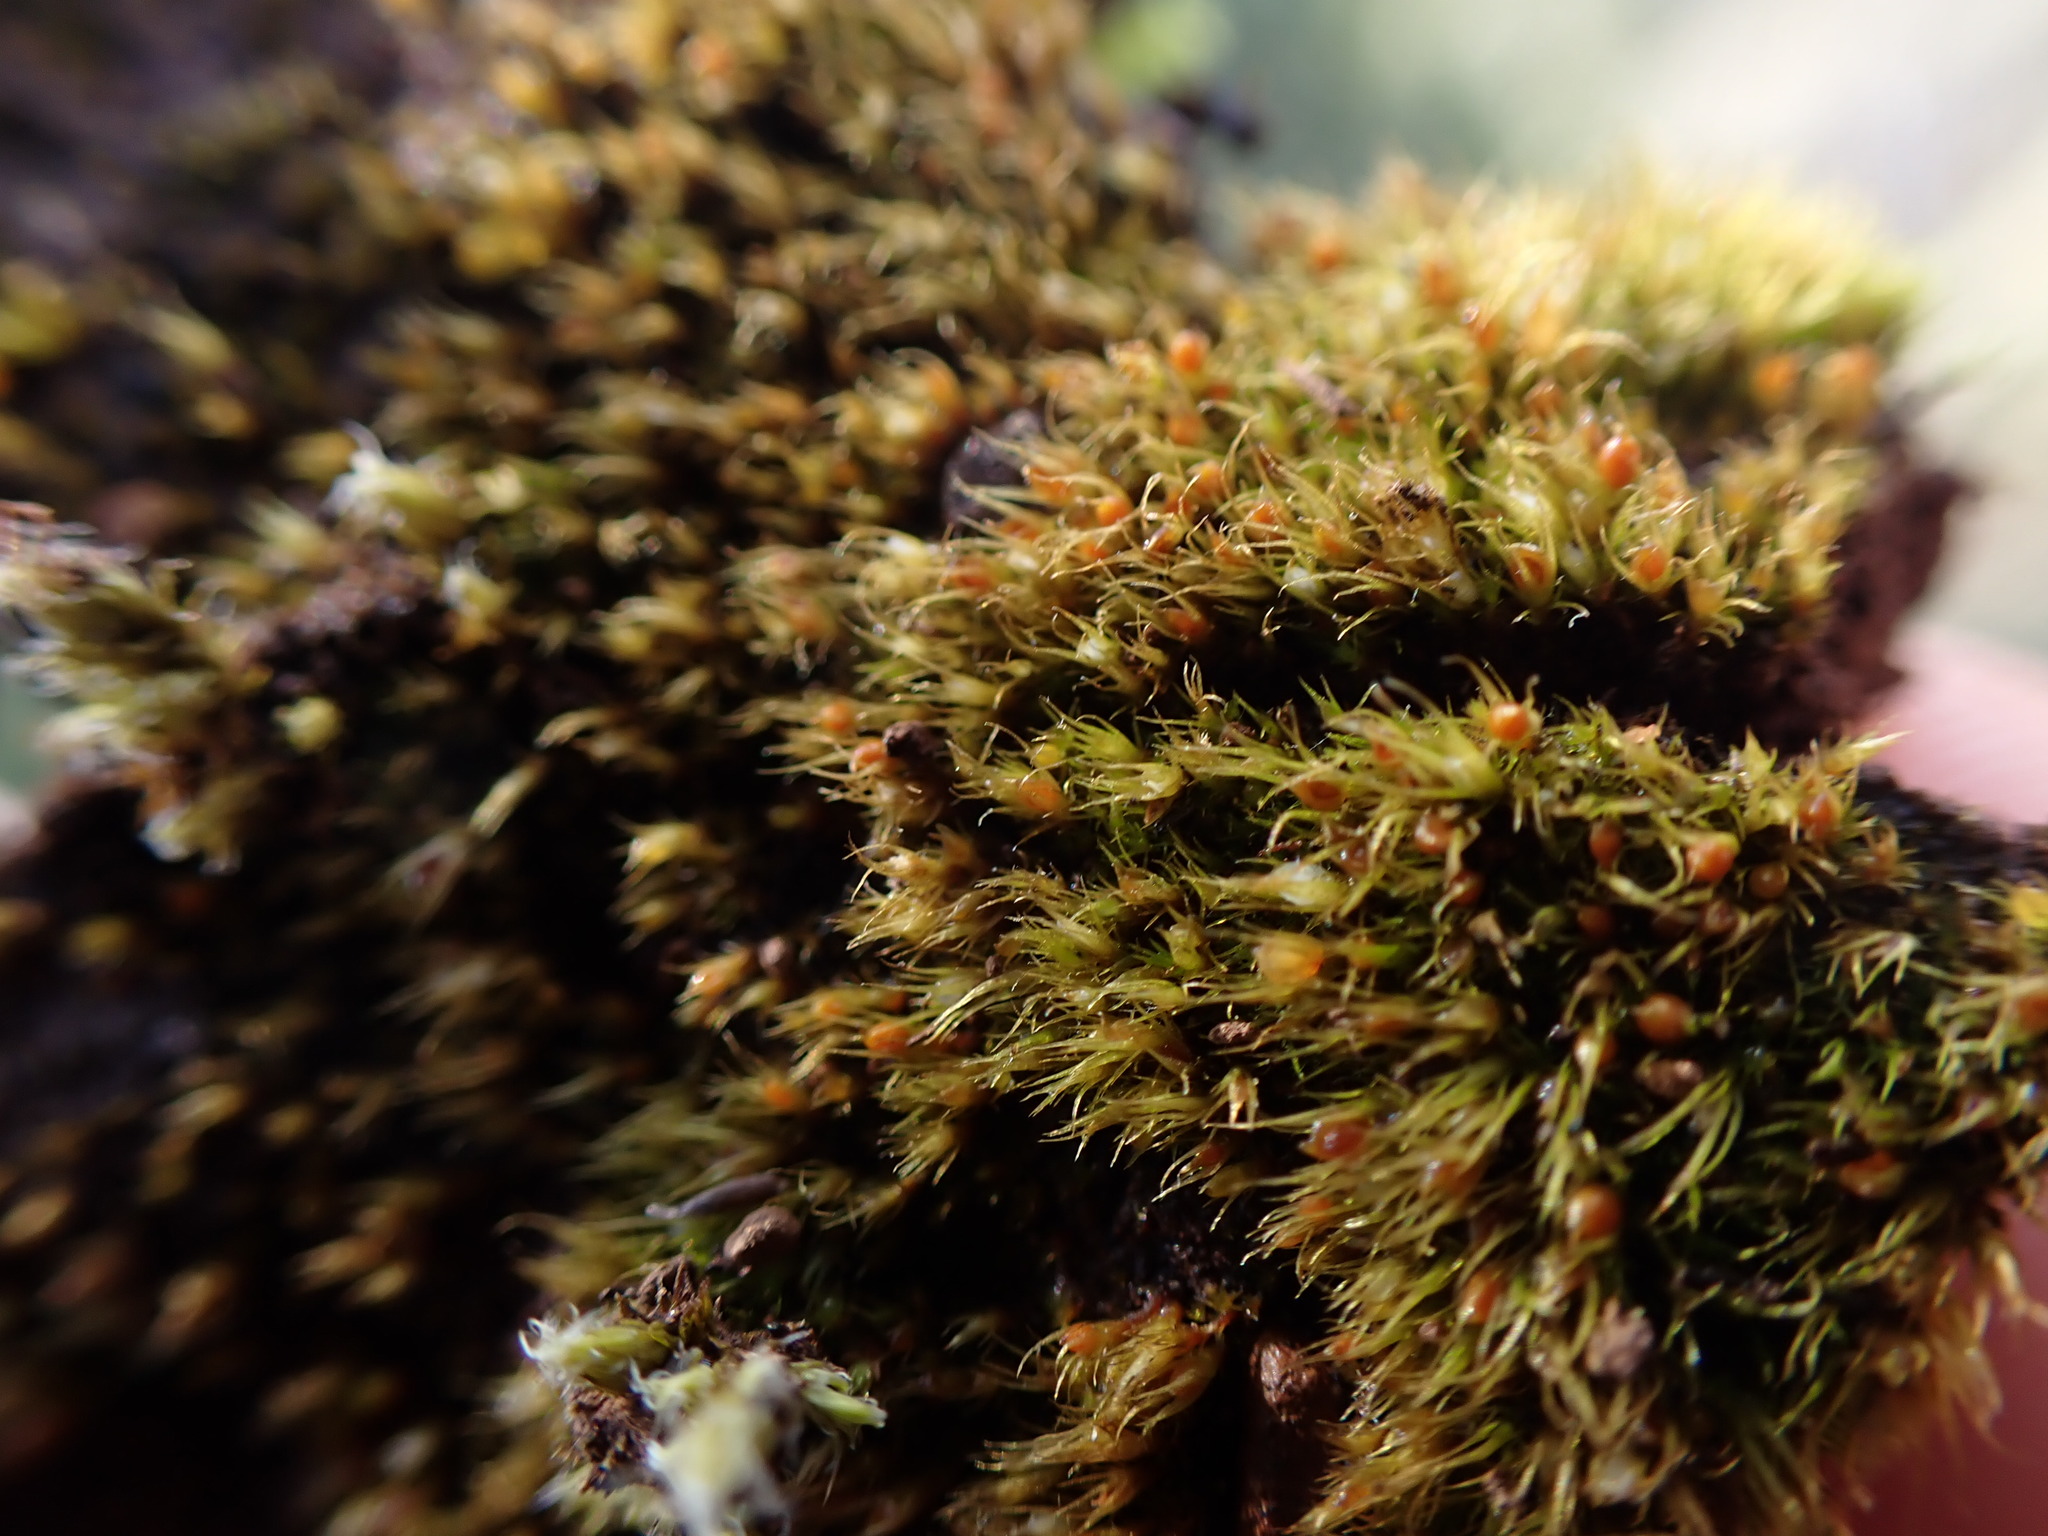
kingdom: Plantae
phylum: Bryophyta
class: Bryopsida
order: Dicranales
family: Ditrichaceae
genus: Pleuridium
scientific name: Pleuridium acuminatum
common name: Taper-leaved earth-moss
